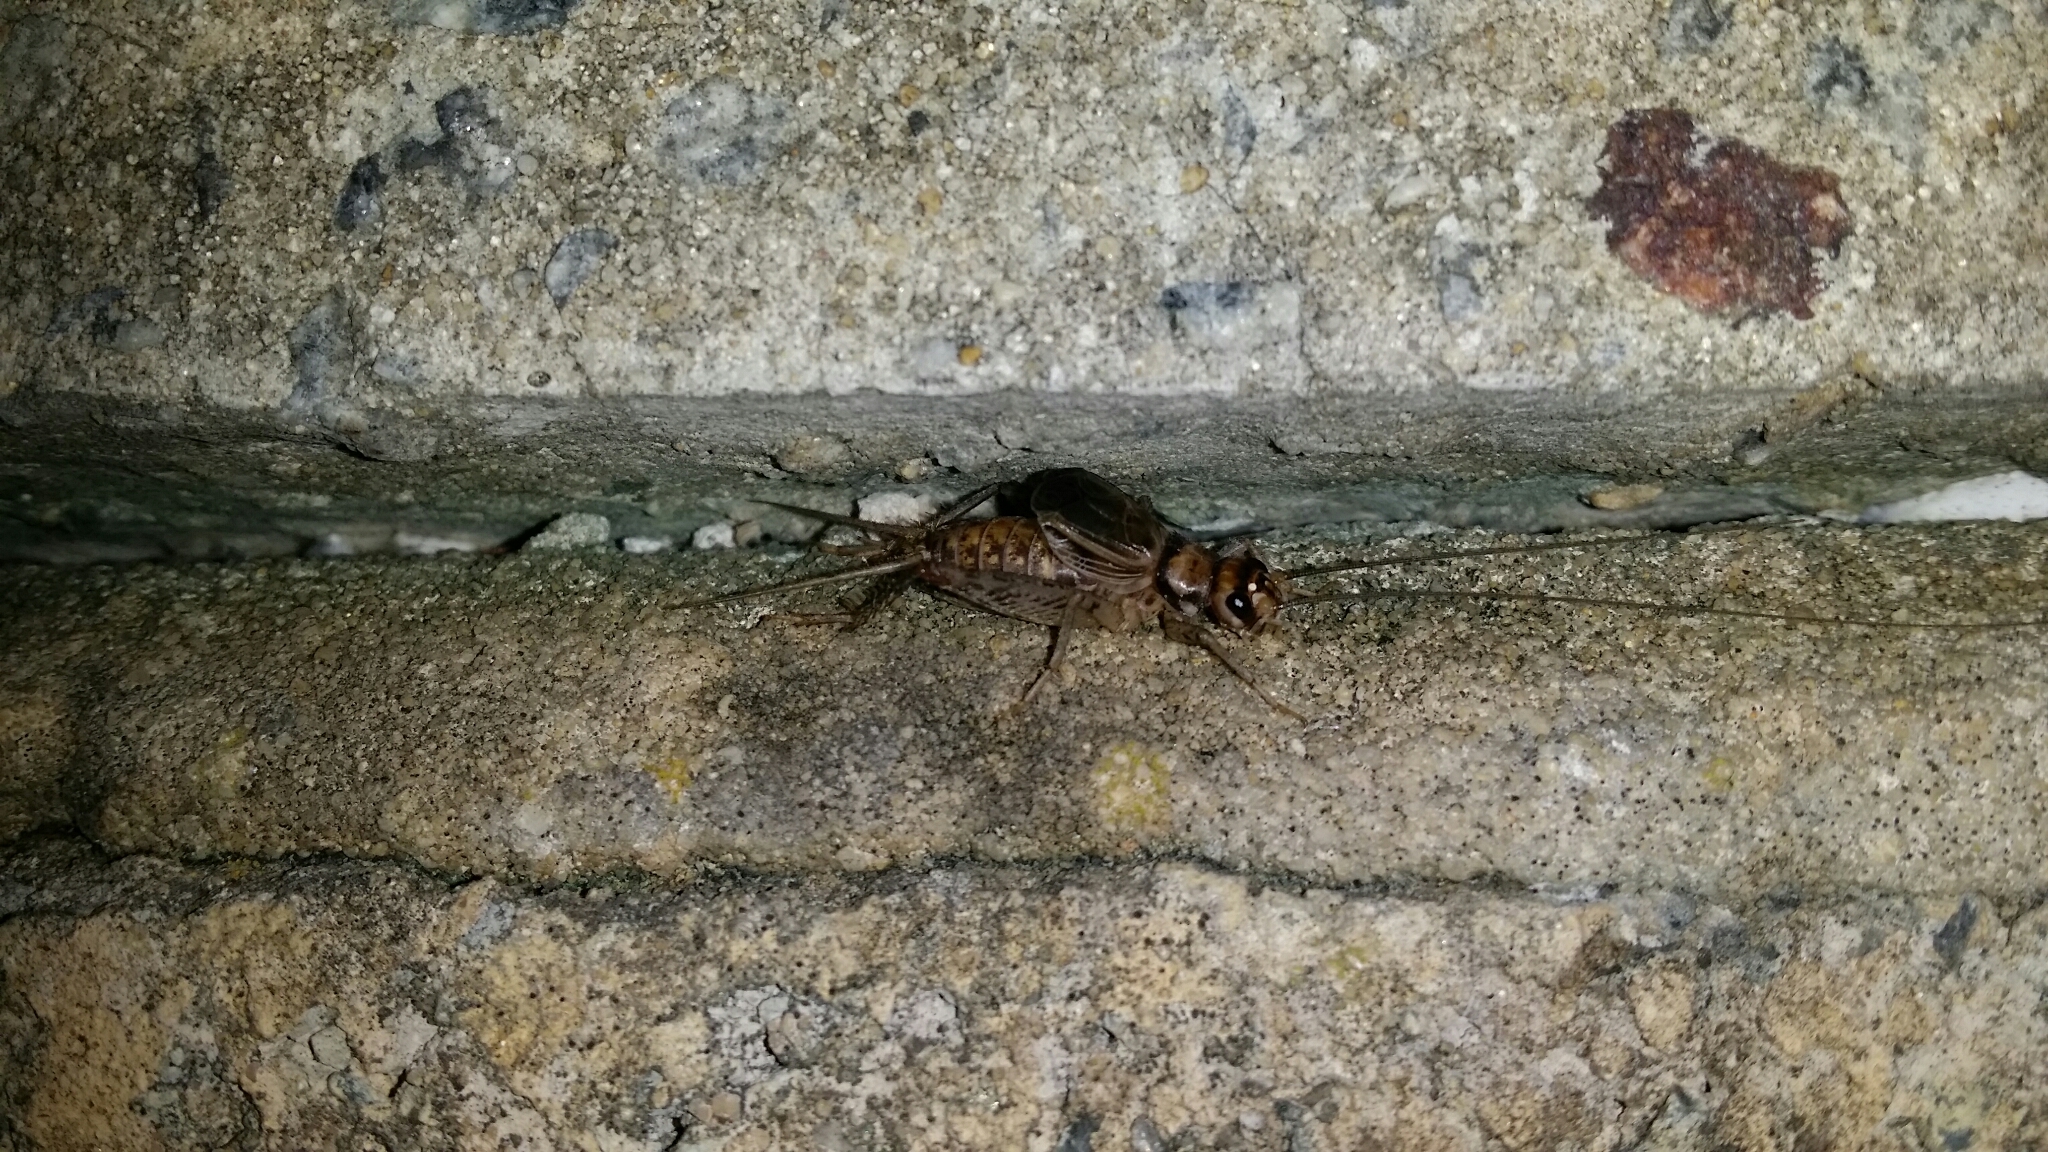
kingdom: Animalia
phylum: Arthropoda
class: Insecta
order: Orthoptera
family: Gryllidae
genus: Gryllodes
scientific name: Gryllodes sigillatus
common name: Tropical house cricket
